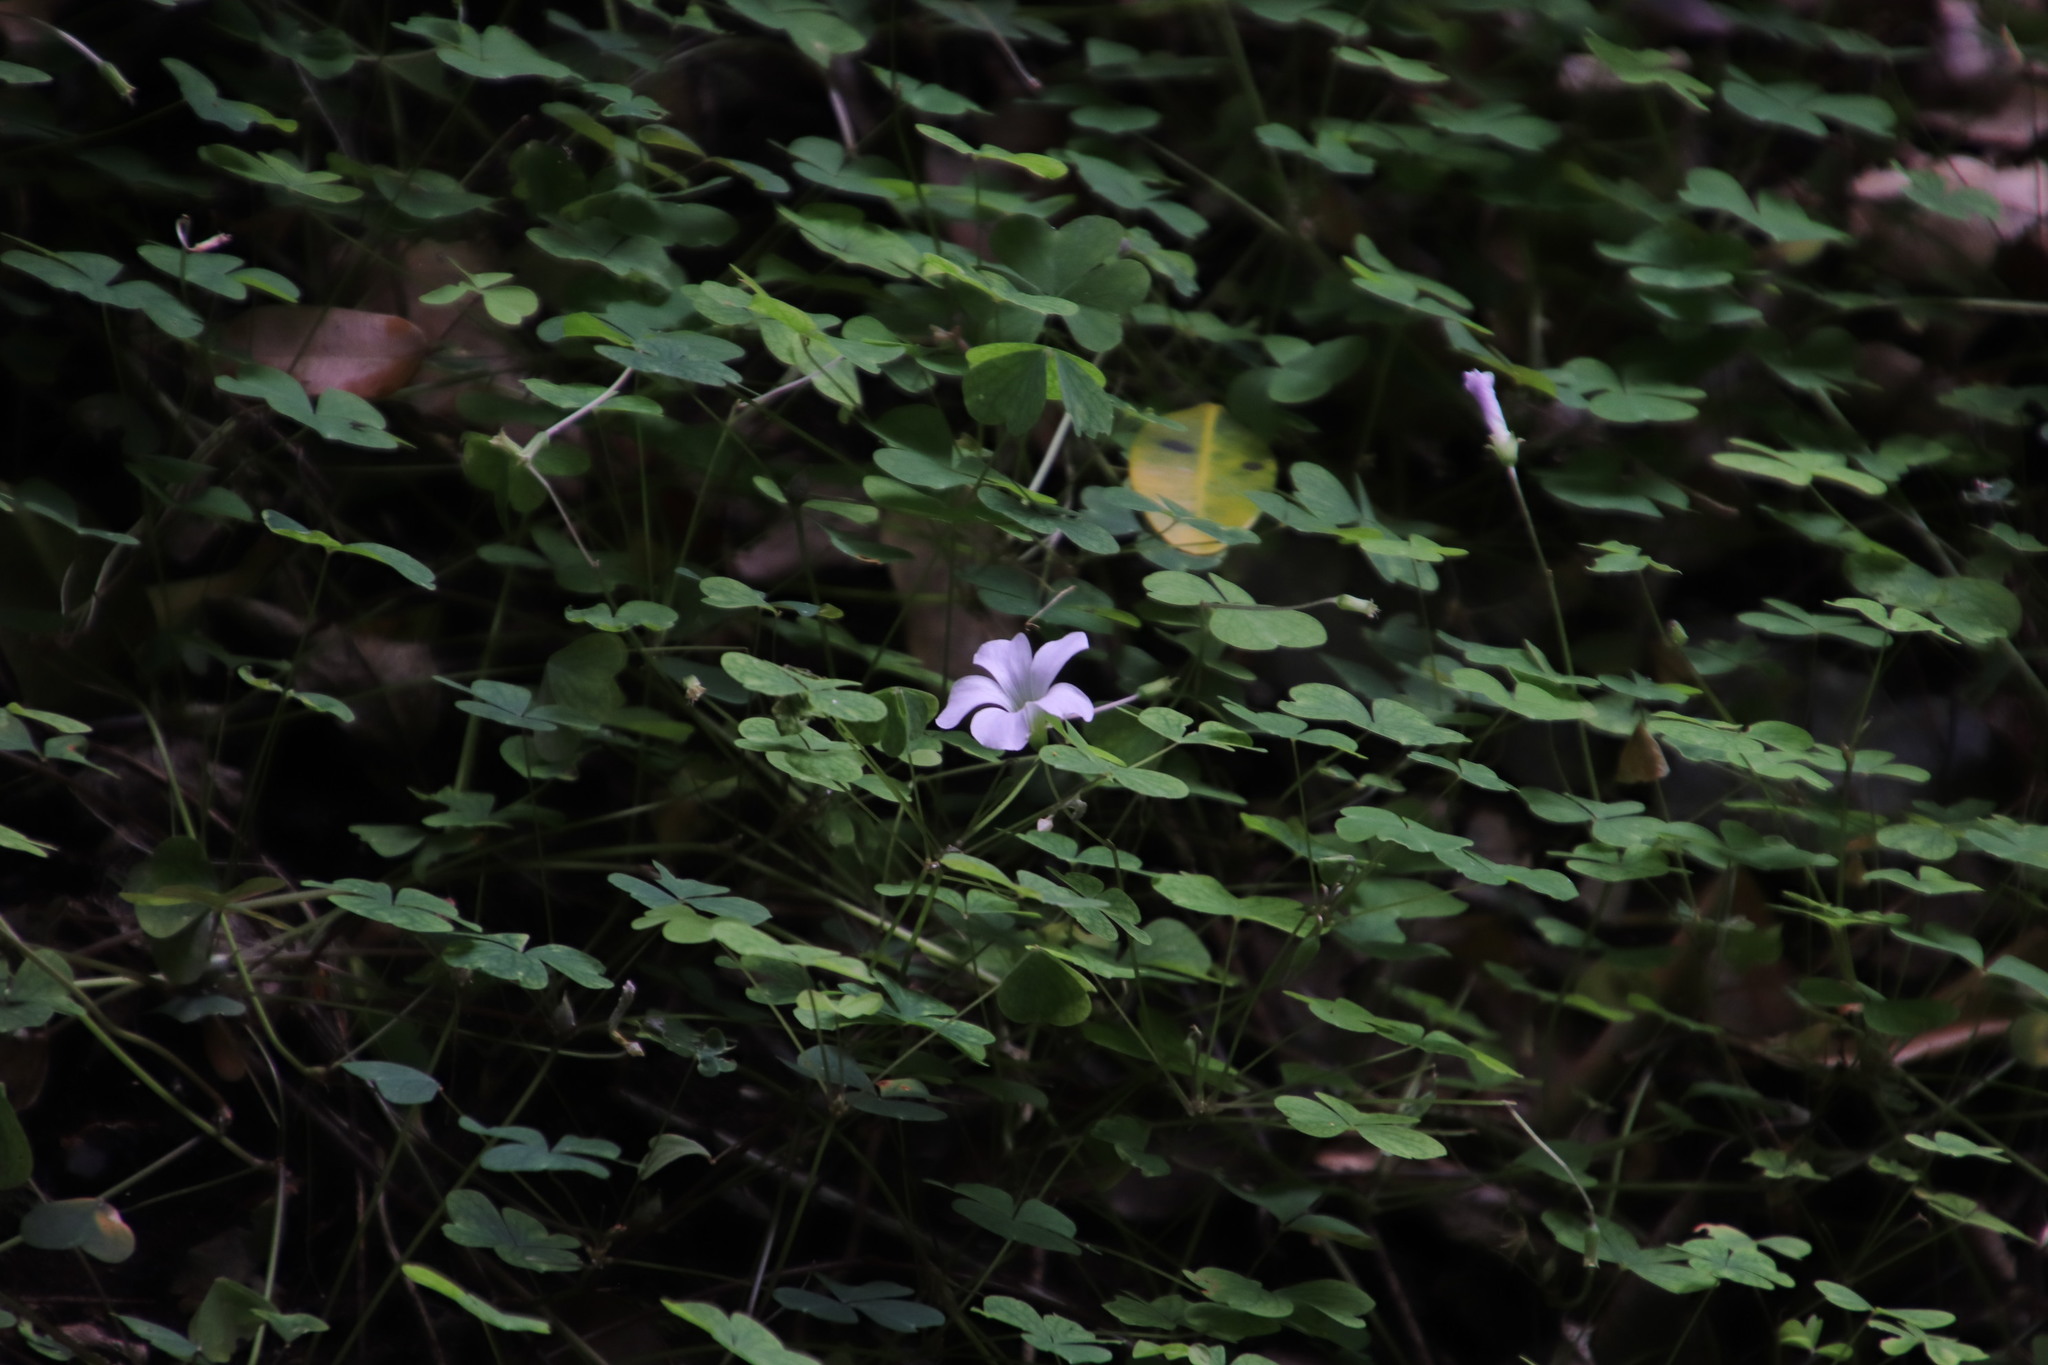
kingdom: Plantae
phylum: Tracheophyta
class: Magnoliopsida
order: Oxalidales
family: Oxalidaceae
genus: Oxalis
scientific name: Oxalis incarnata
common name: Pale pink-sorrel
